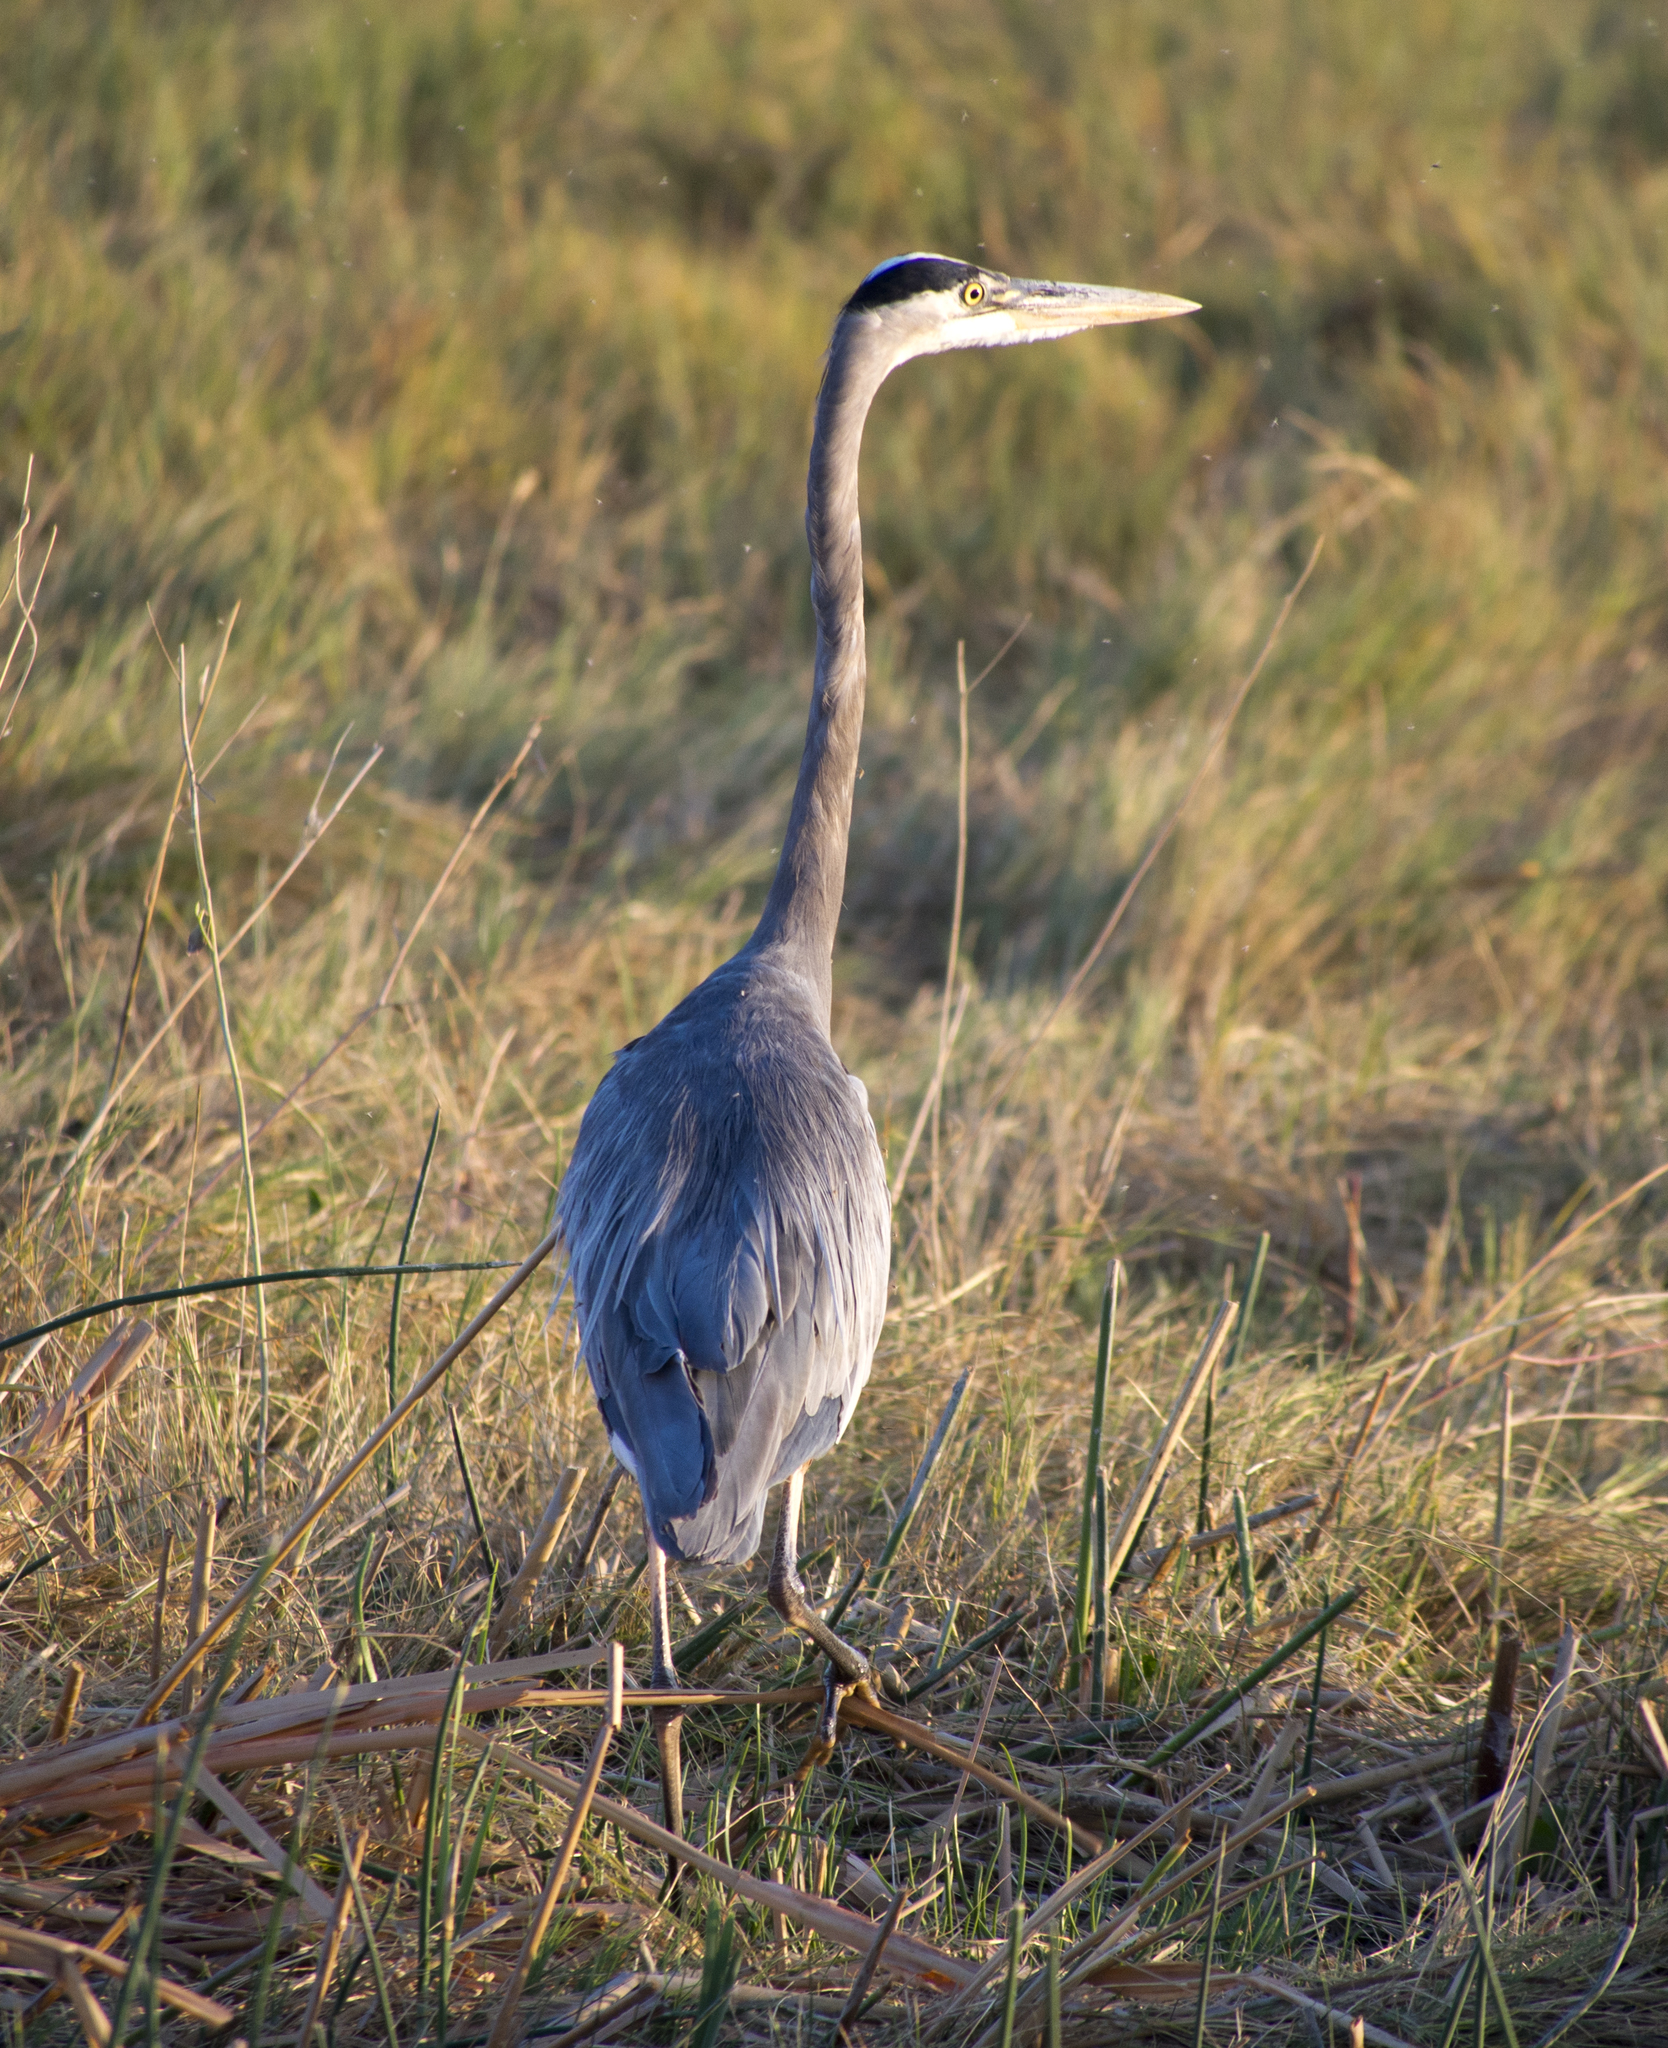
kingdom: Animalia
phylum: Chordata
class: Aves
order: Pelecaniformes
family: Ardeidae
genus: Ardea
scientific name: Ardea herodias
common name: Great blue heron
